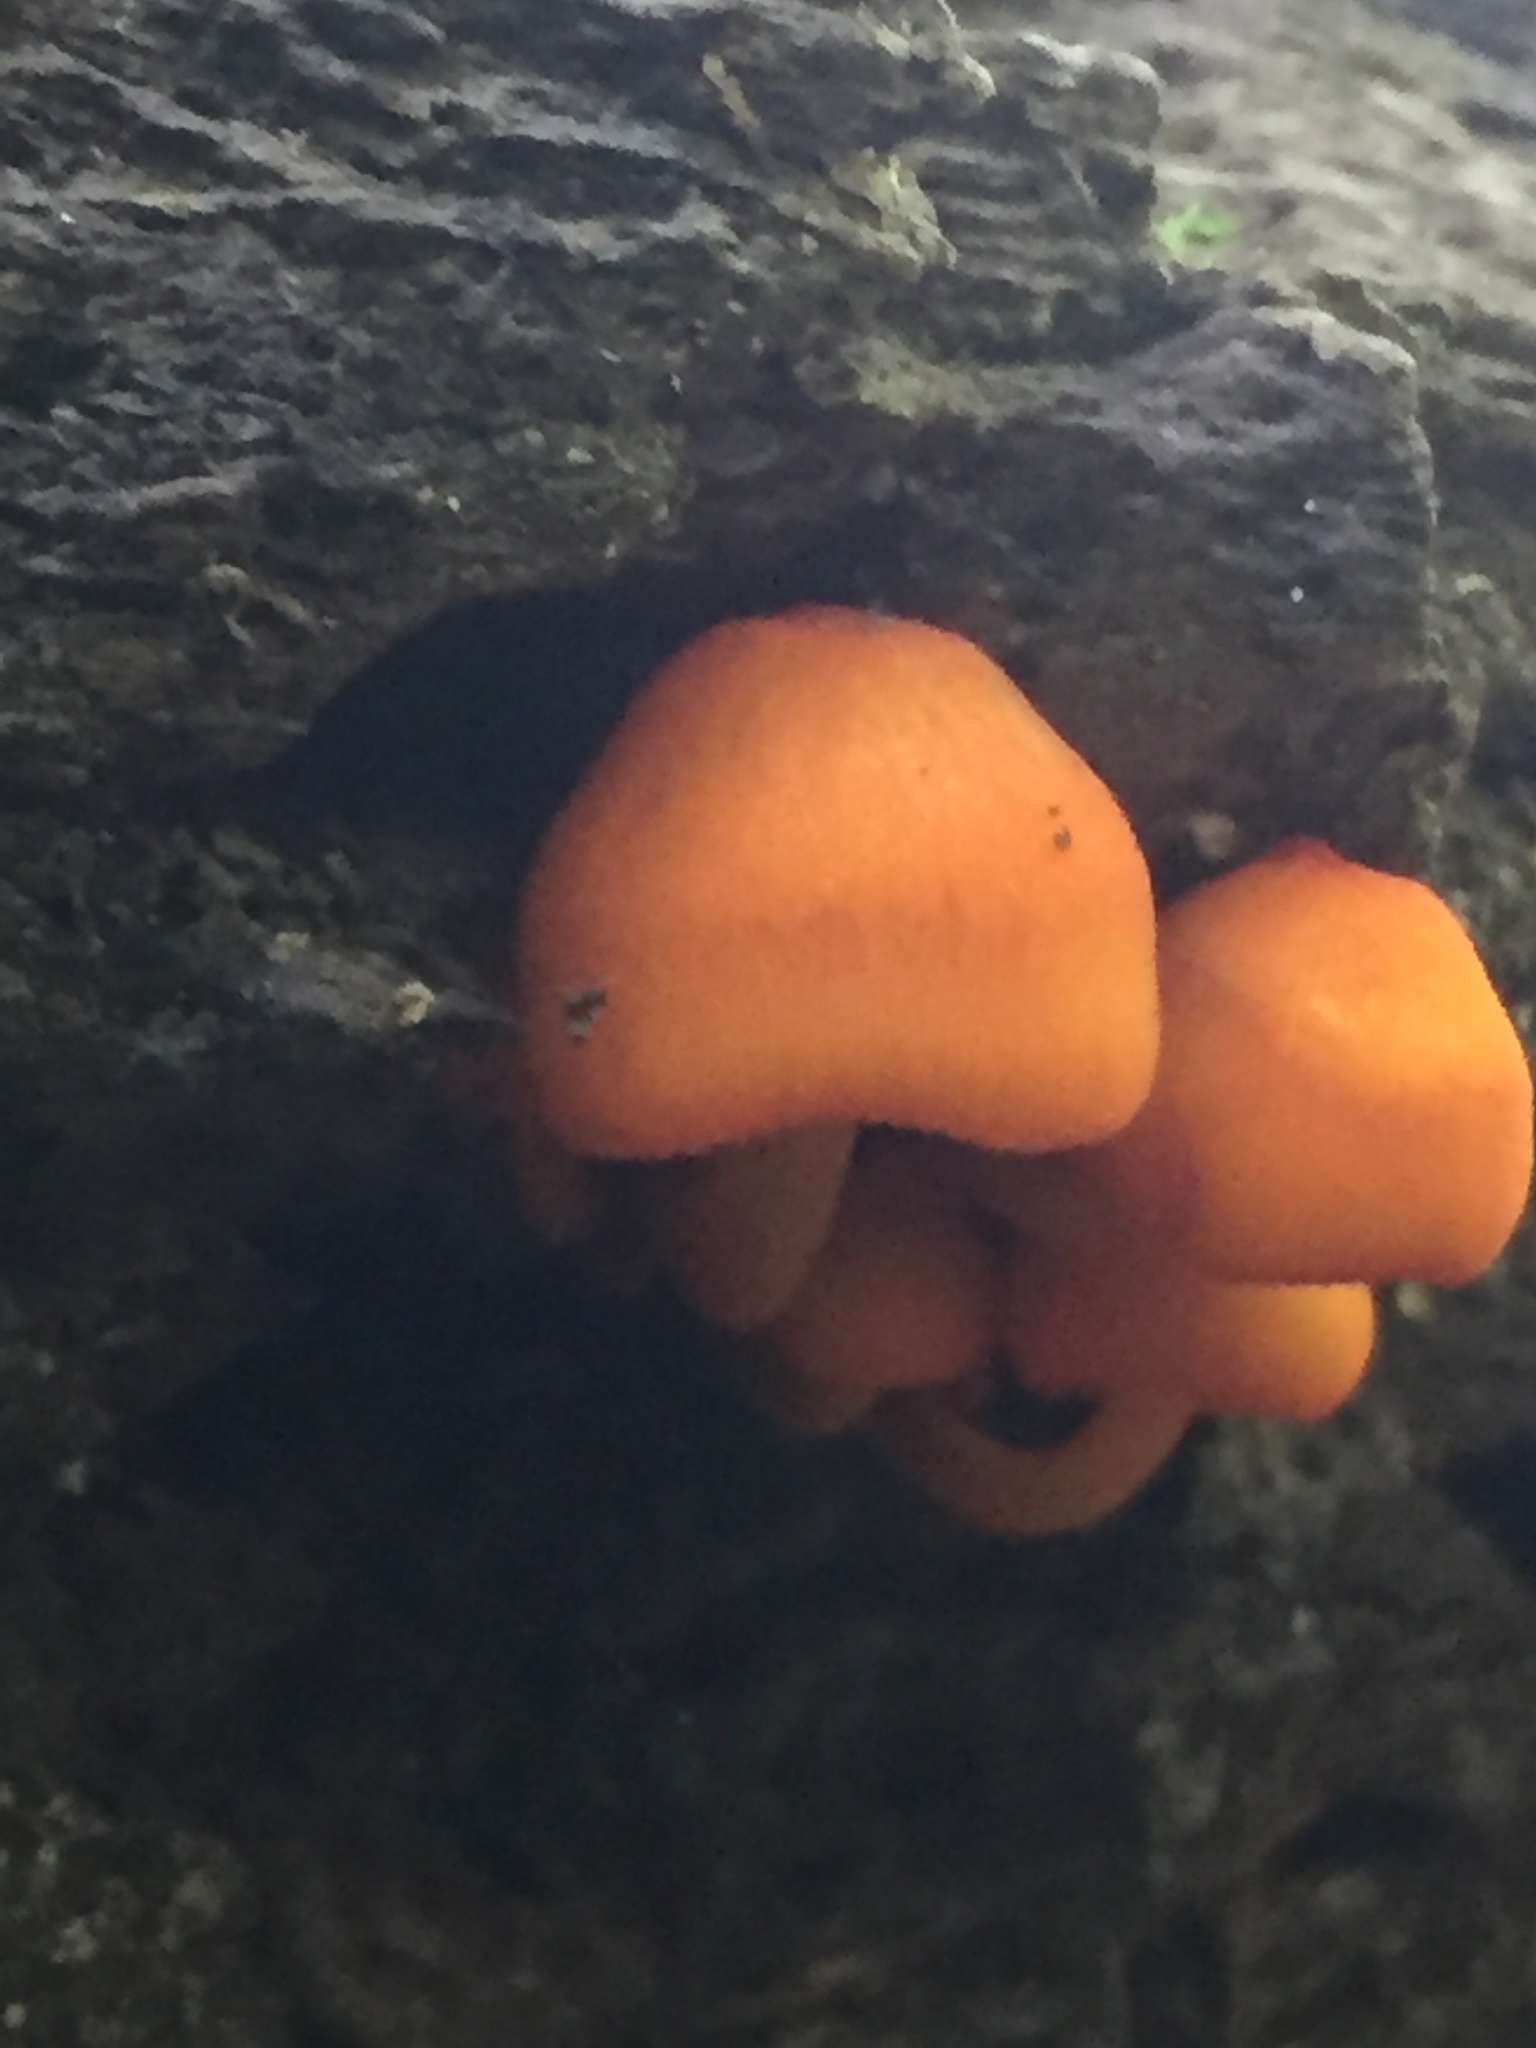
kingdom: Fungi
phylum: Basidiomycota
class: Agaricomycetes
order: Agaricales
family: Mycenaceae
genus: Mycena
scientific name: Mycena leaiana
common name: Orange mycena
